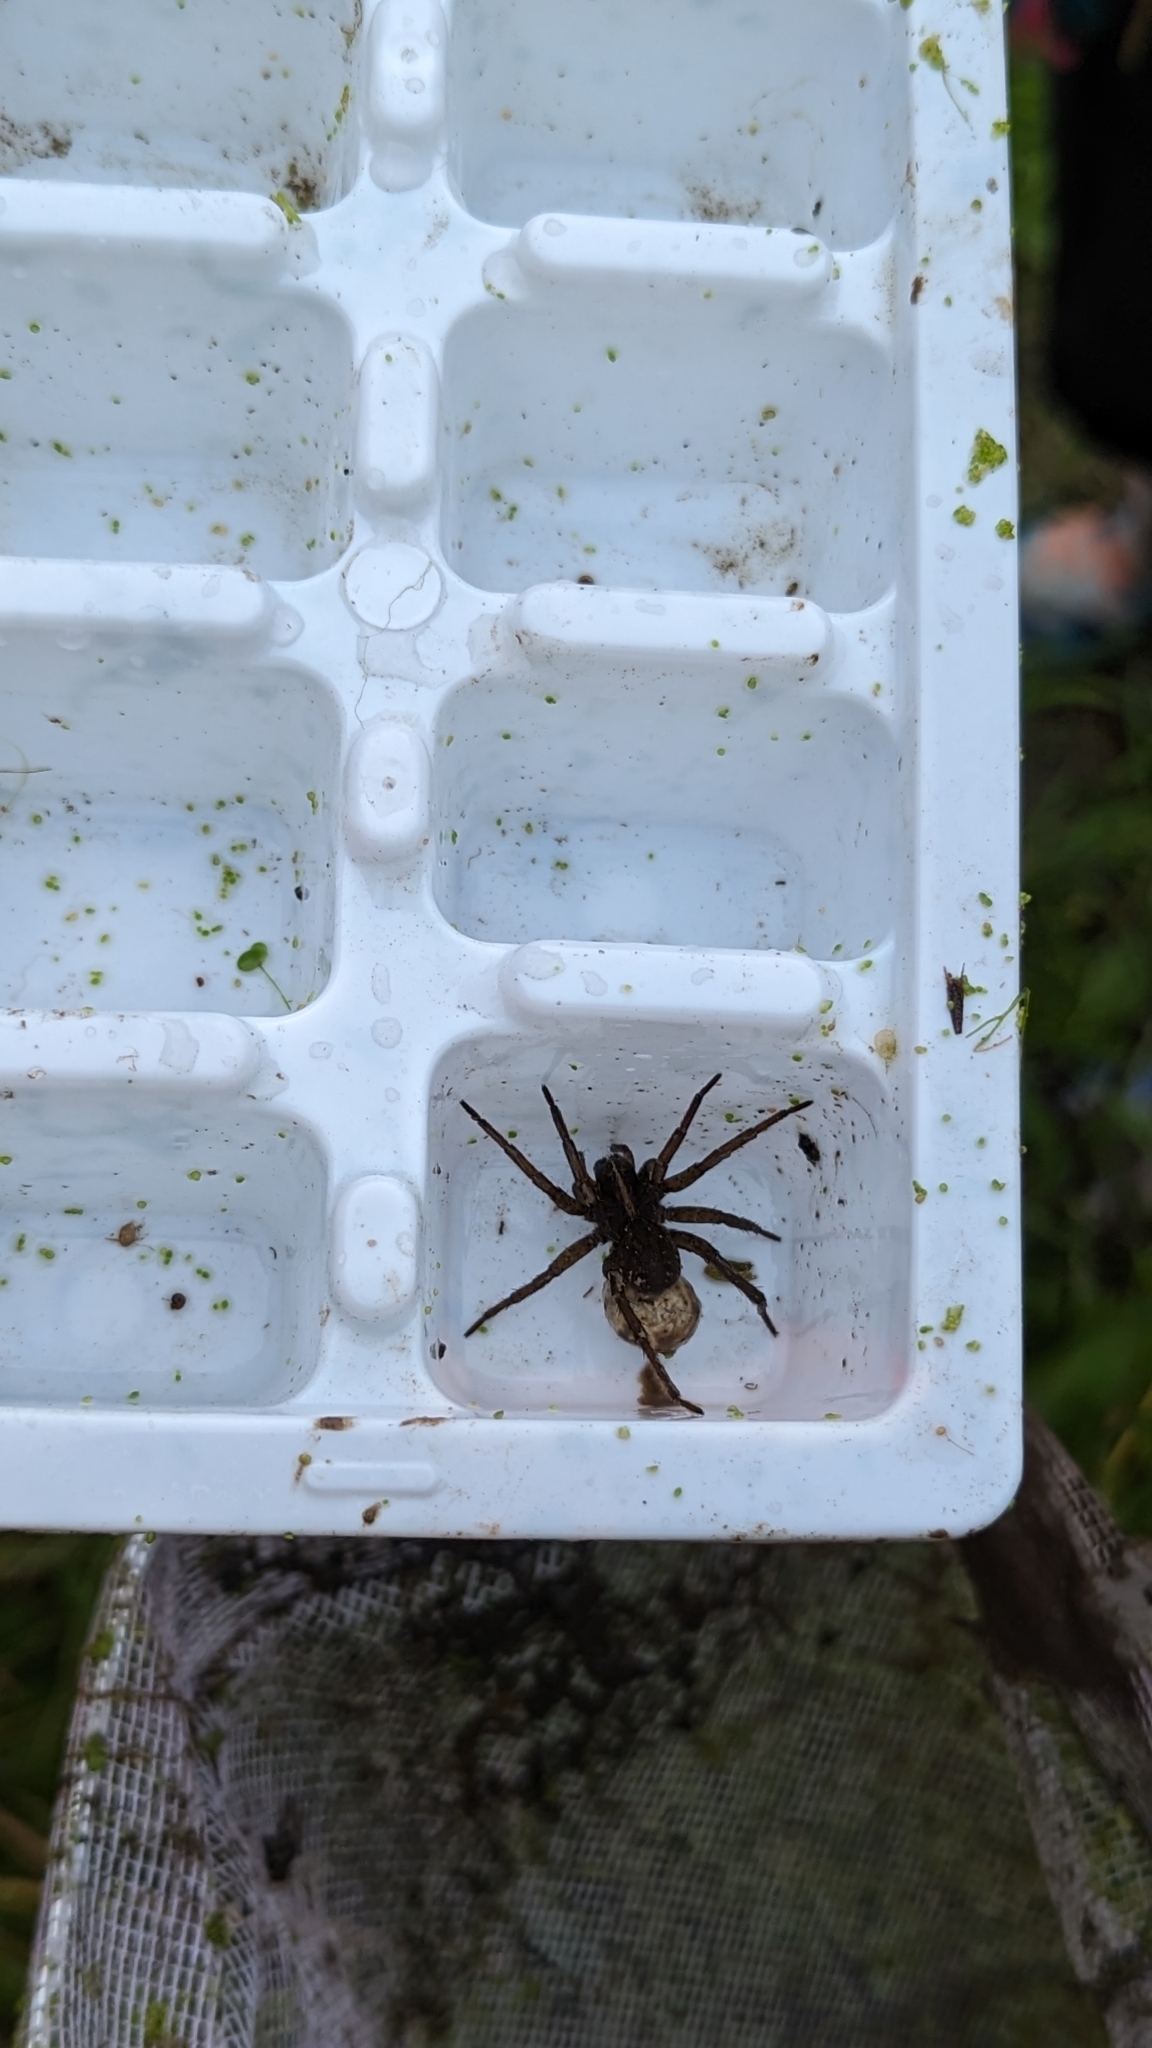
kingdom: Animalia
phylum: Arthropoda
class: Arachnida
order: Araneae
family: Lycosidae
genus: Tigrosa
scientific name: Tigrosa helluo
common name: Wetland giant wolf spider
